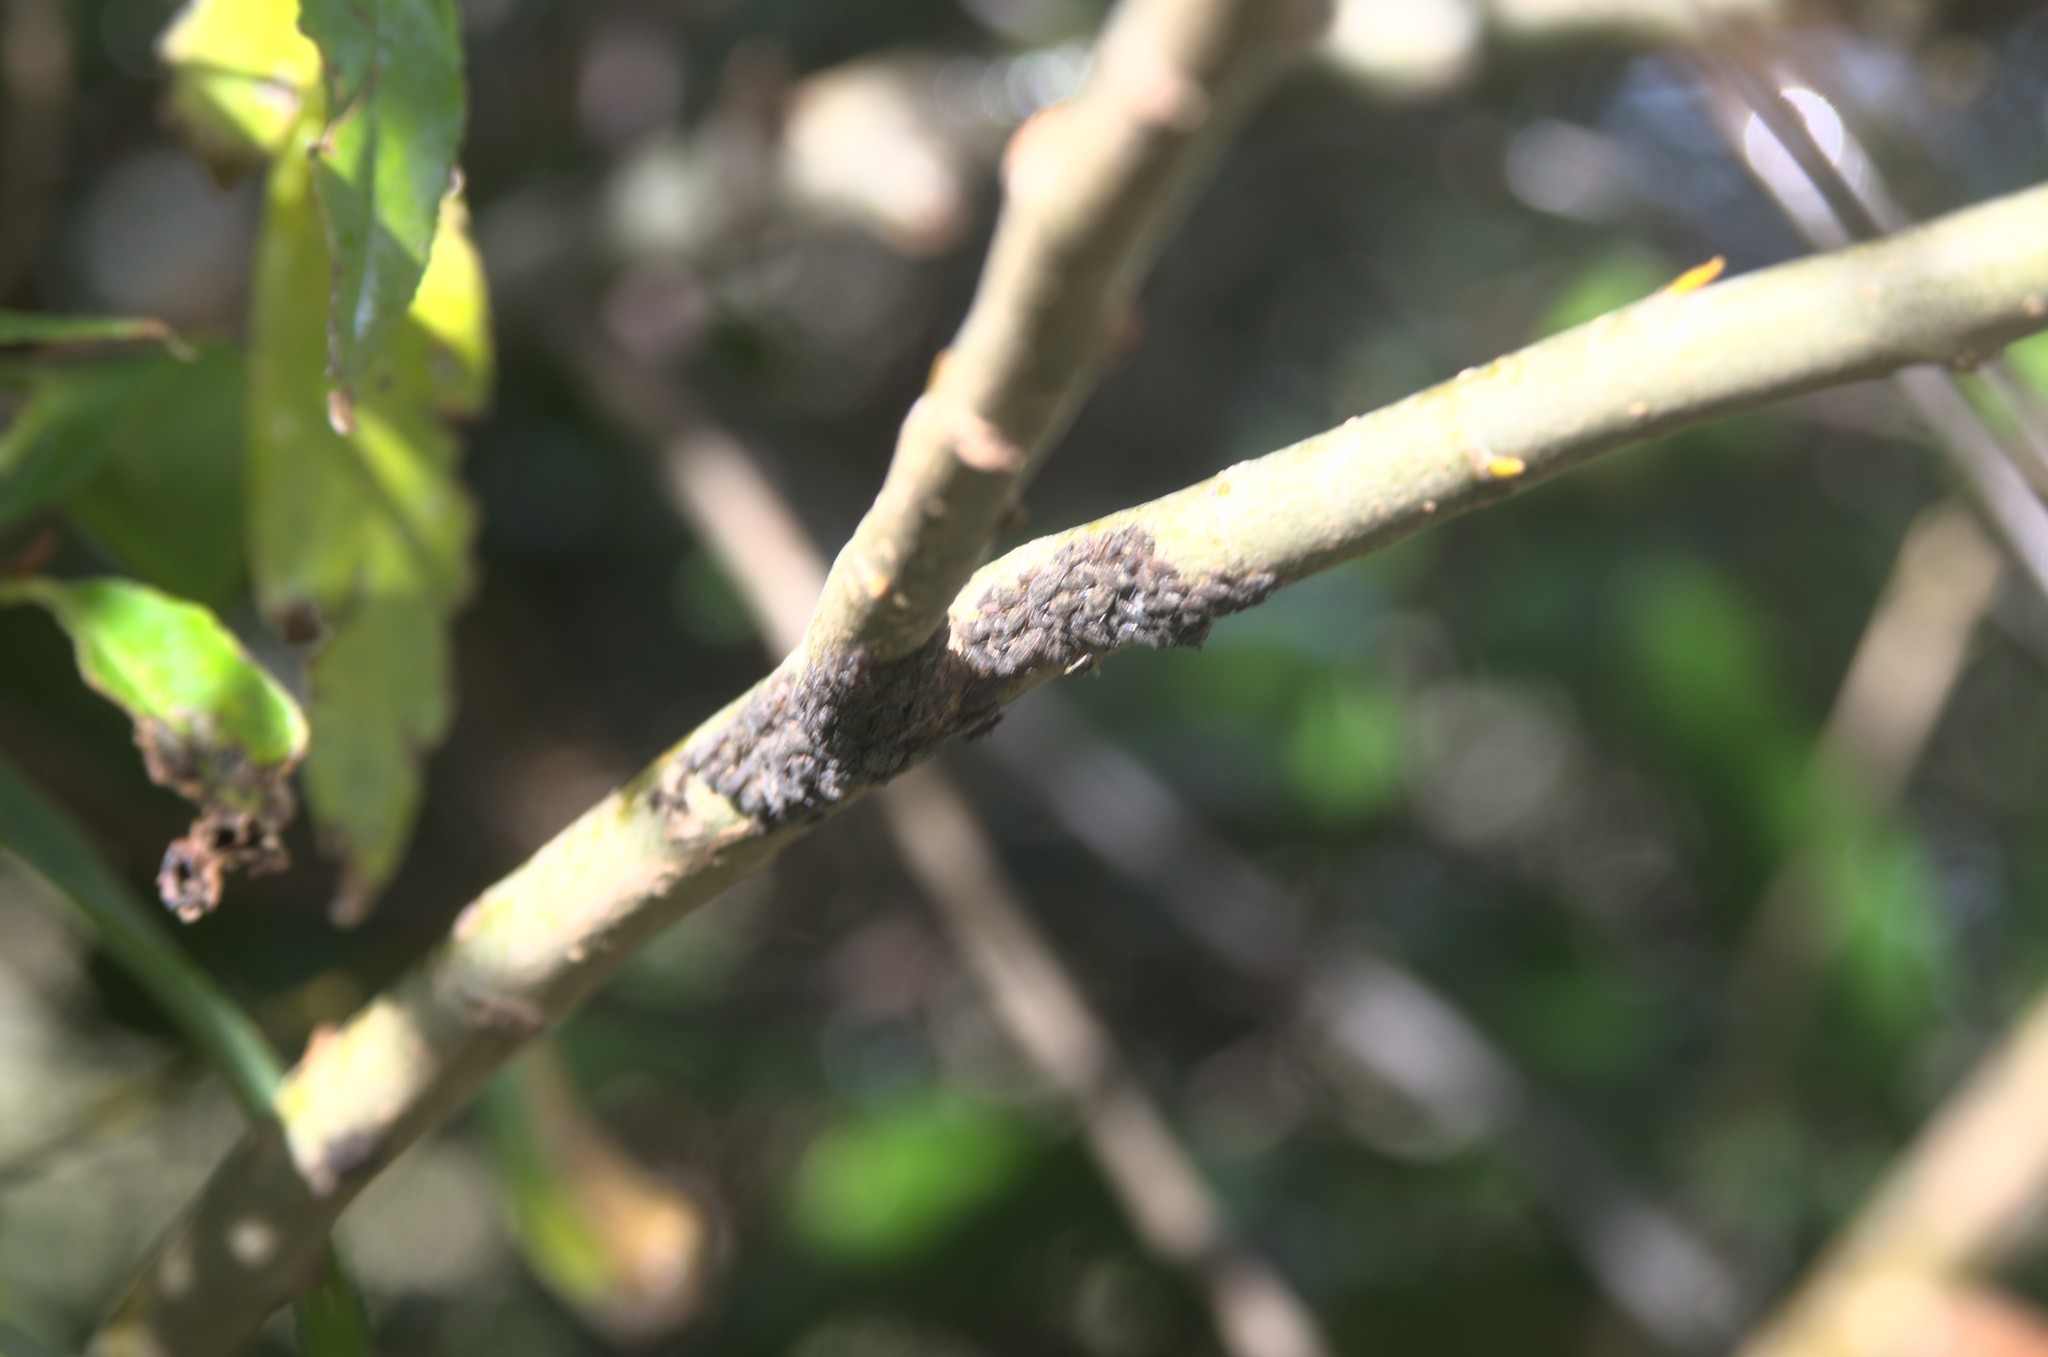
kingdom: Animalia
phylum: Arthropoda
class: Insecta
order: Hemiptera
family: Aphididae
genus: Tuberolachnus
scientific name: Tuberolachnus salignus
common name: Giant willow aphid
